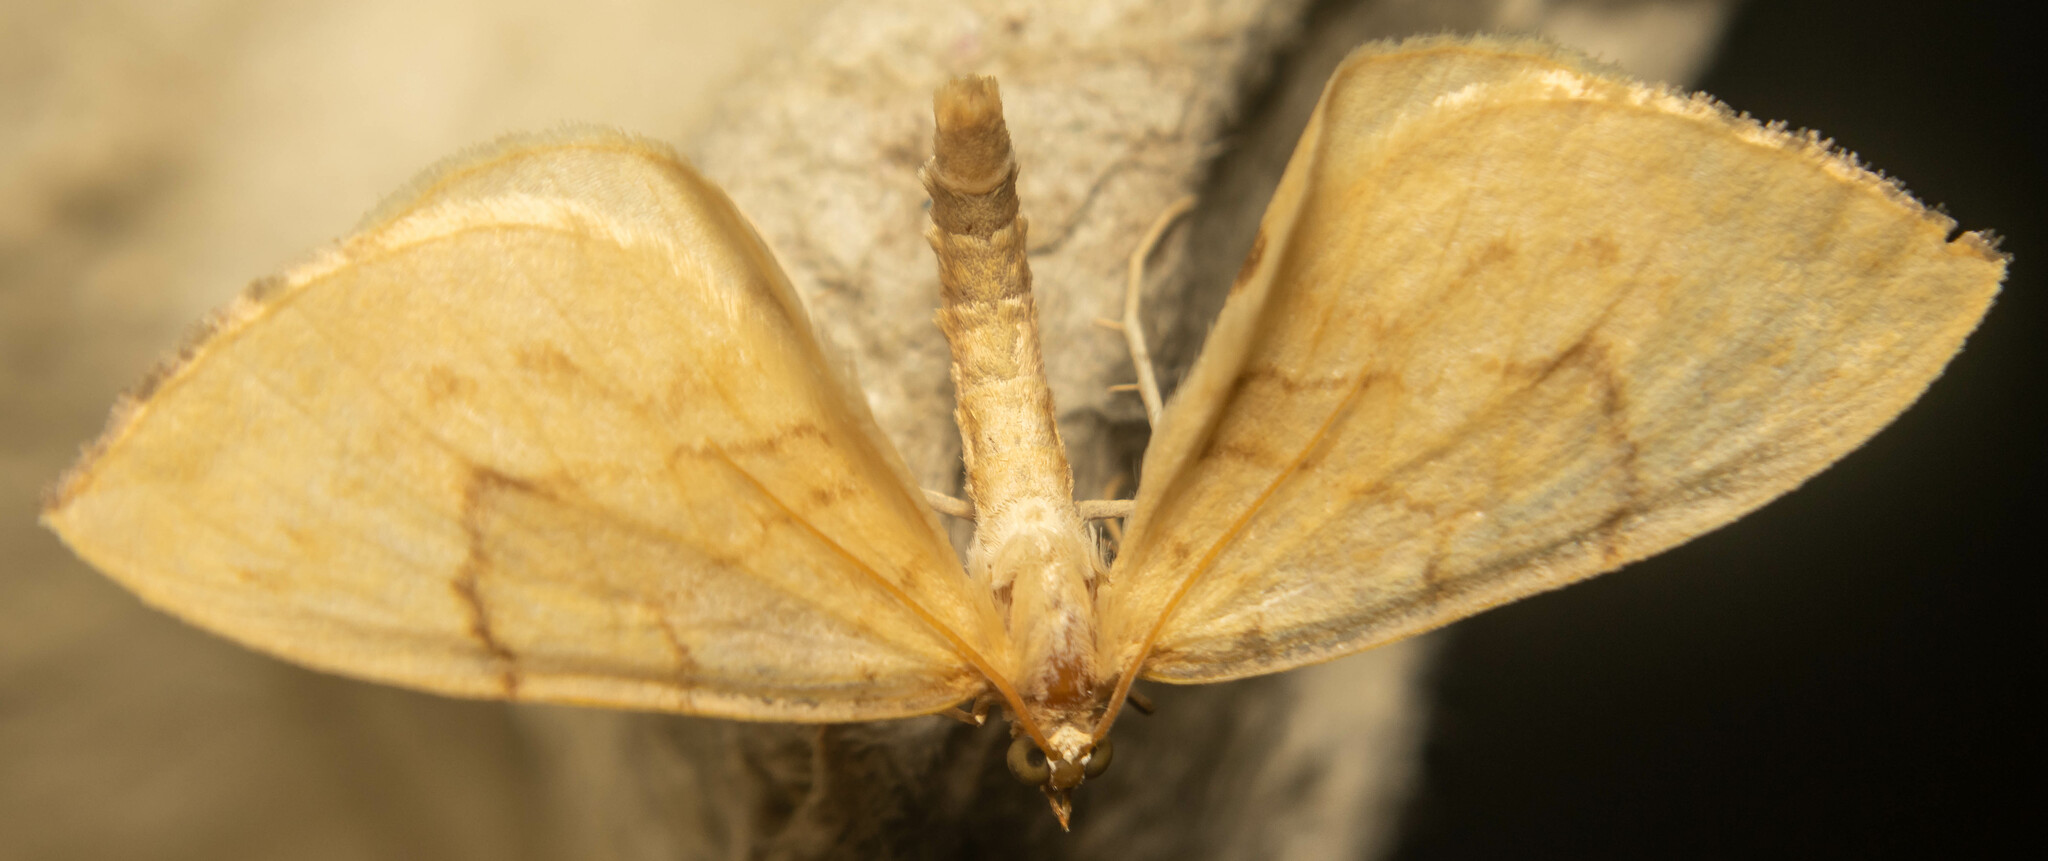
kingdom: Animalia
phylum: Arthropoda
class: Insecta
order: Lepidoptera
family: Geometridae
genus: Eulithis
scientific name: Eulithis pyraliata
